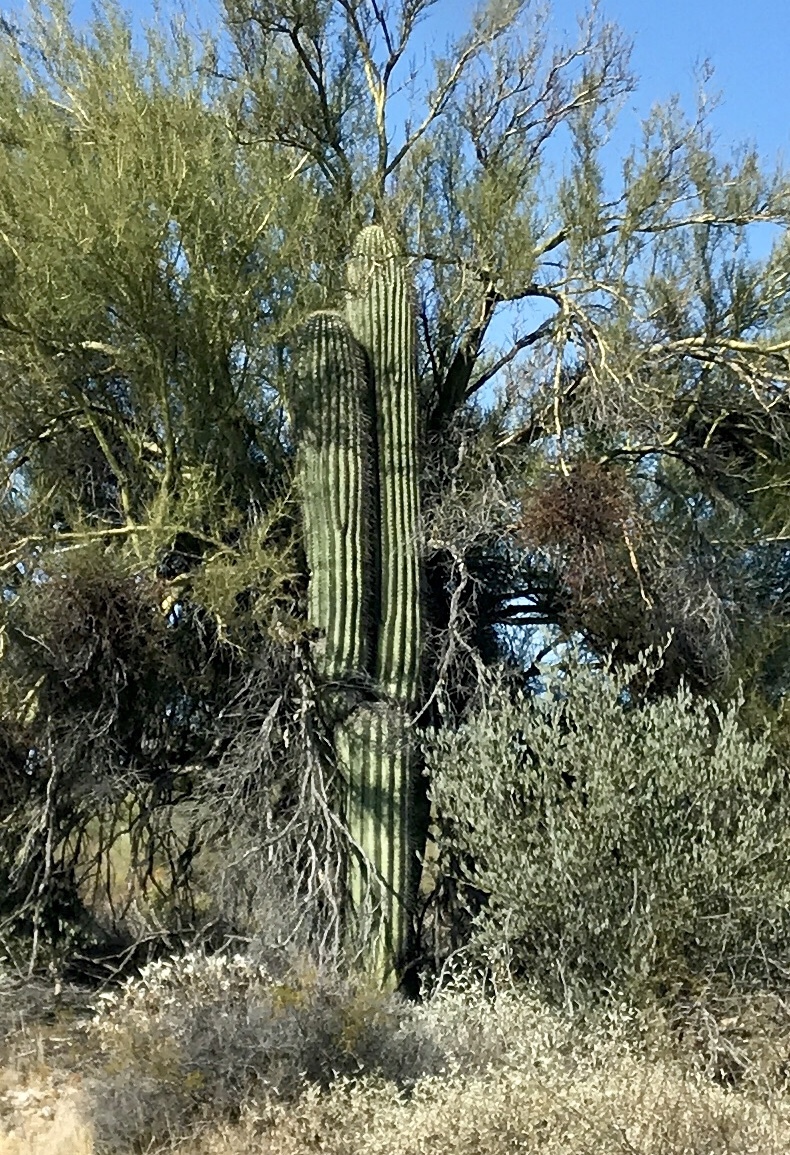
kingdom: Plantae
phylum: Tracheophyta
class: Magnoliopsida
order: Caryophyllales
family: Cactaceae
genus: Carnegiea
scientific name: Carnegiea gigantea
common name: Saguaro
